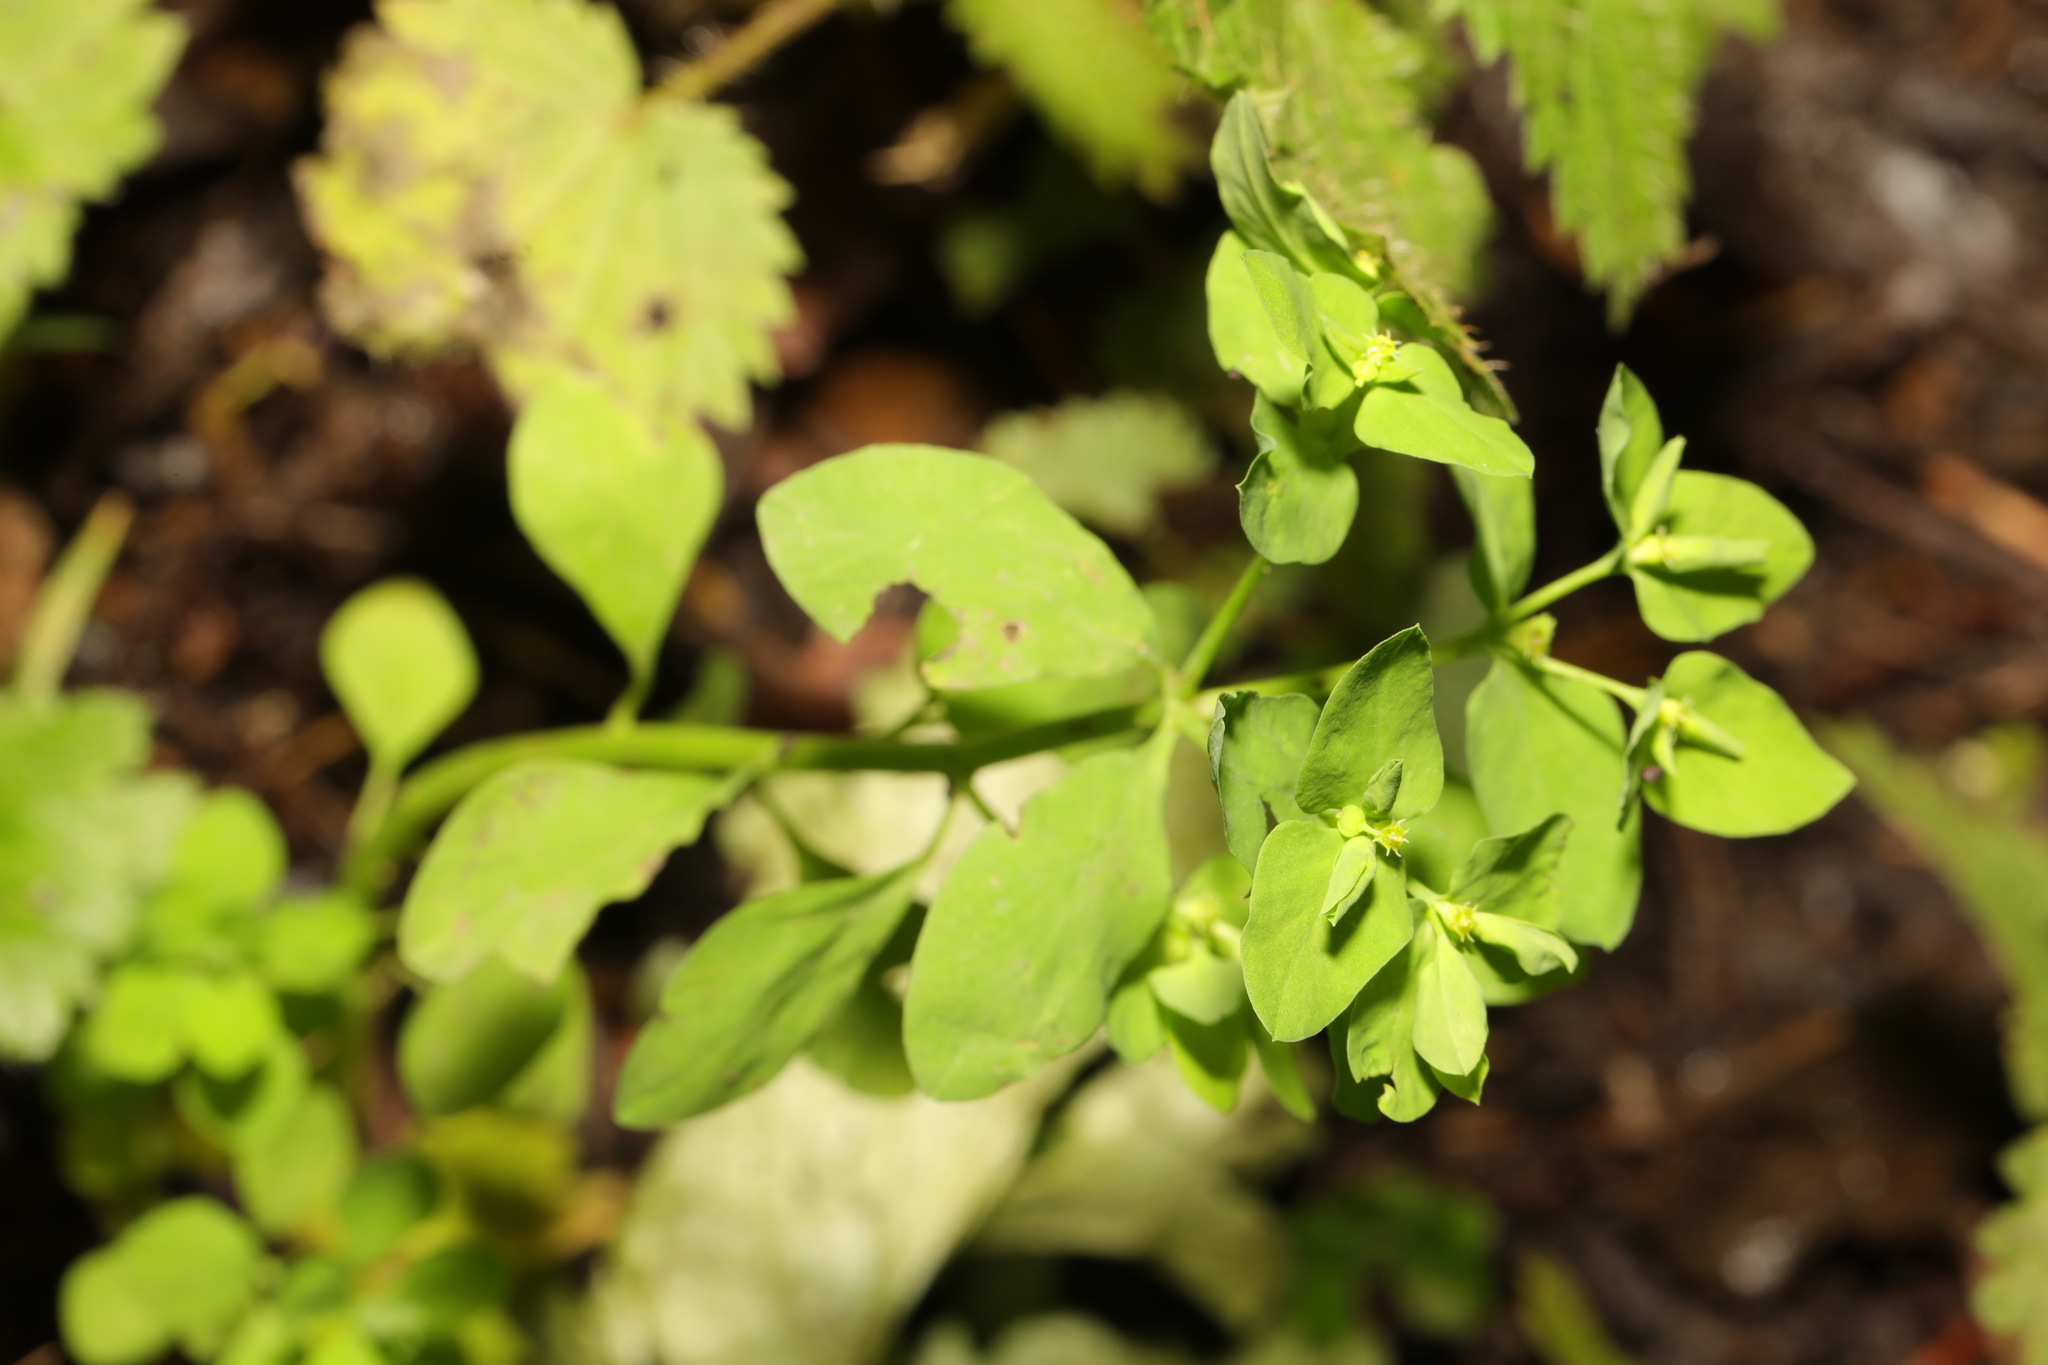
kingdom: Plantae
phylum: Tracheophyta
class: Magnoliopsida
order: Malpighiales
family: Euphorbiaceae
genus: Euphorbia
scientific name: Euphorbia peplus
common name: Petty spurge
